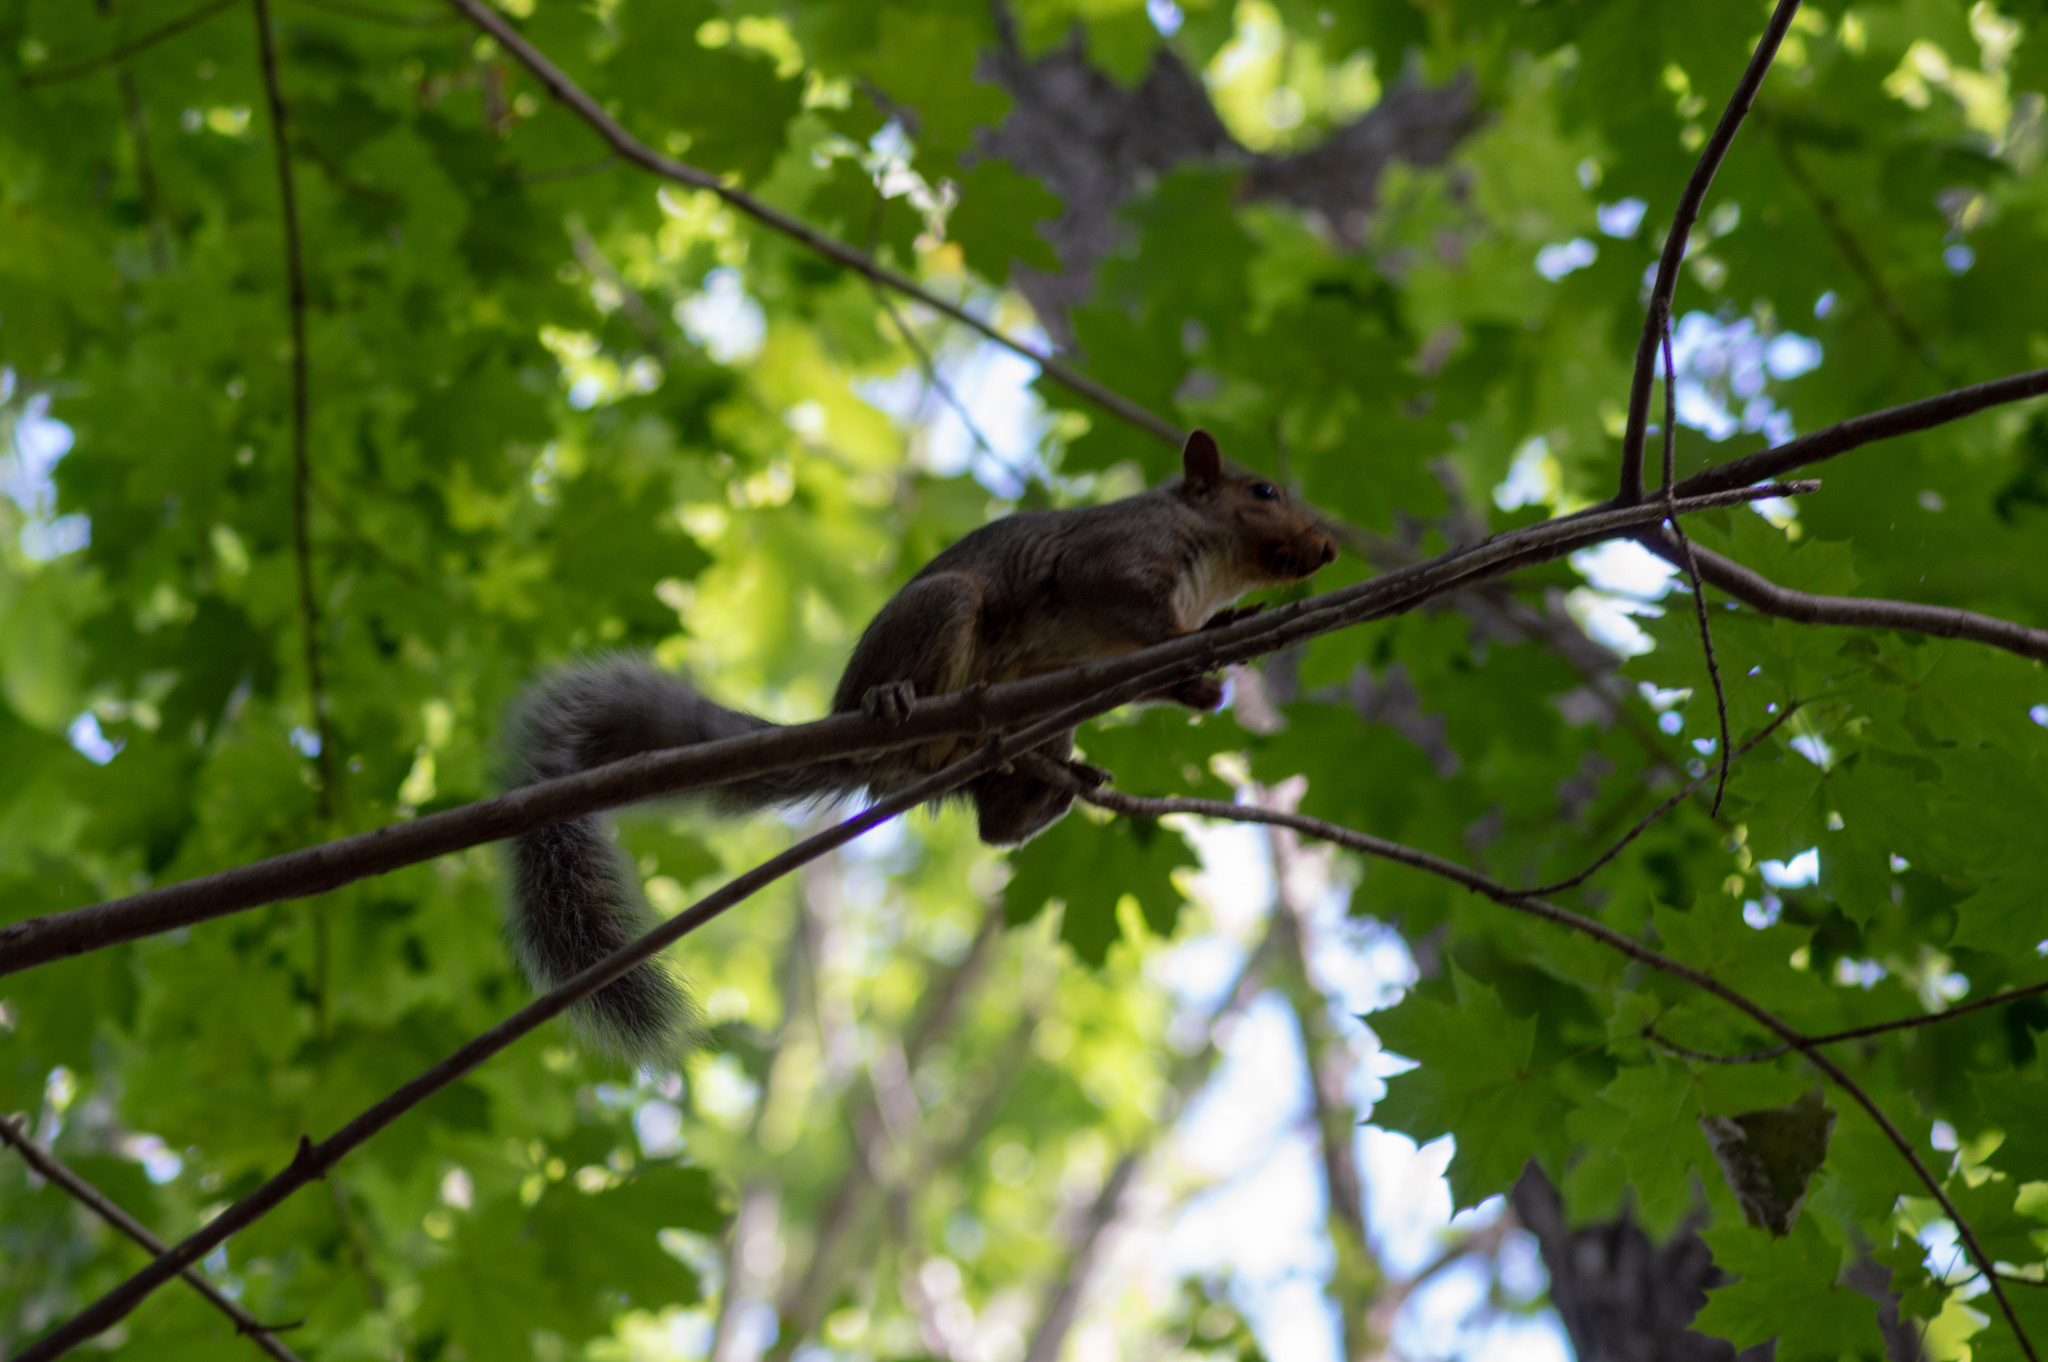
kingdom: Animalia
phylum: Chordata
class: Mammalia
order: Rodentia
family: Sciuridae
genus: Sciurus
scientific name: Sciurus carolinensis
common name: Eastern gray squirrel
